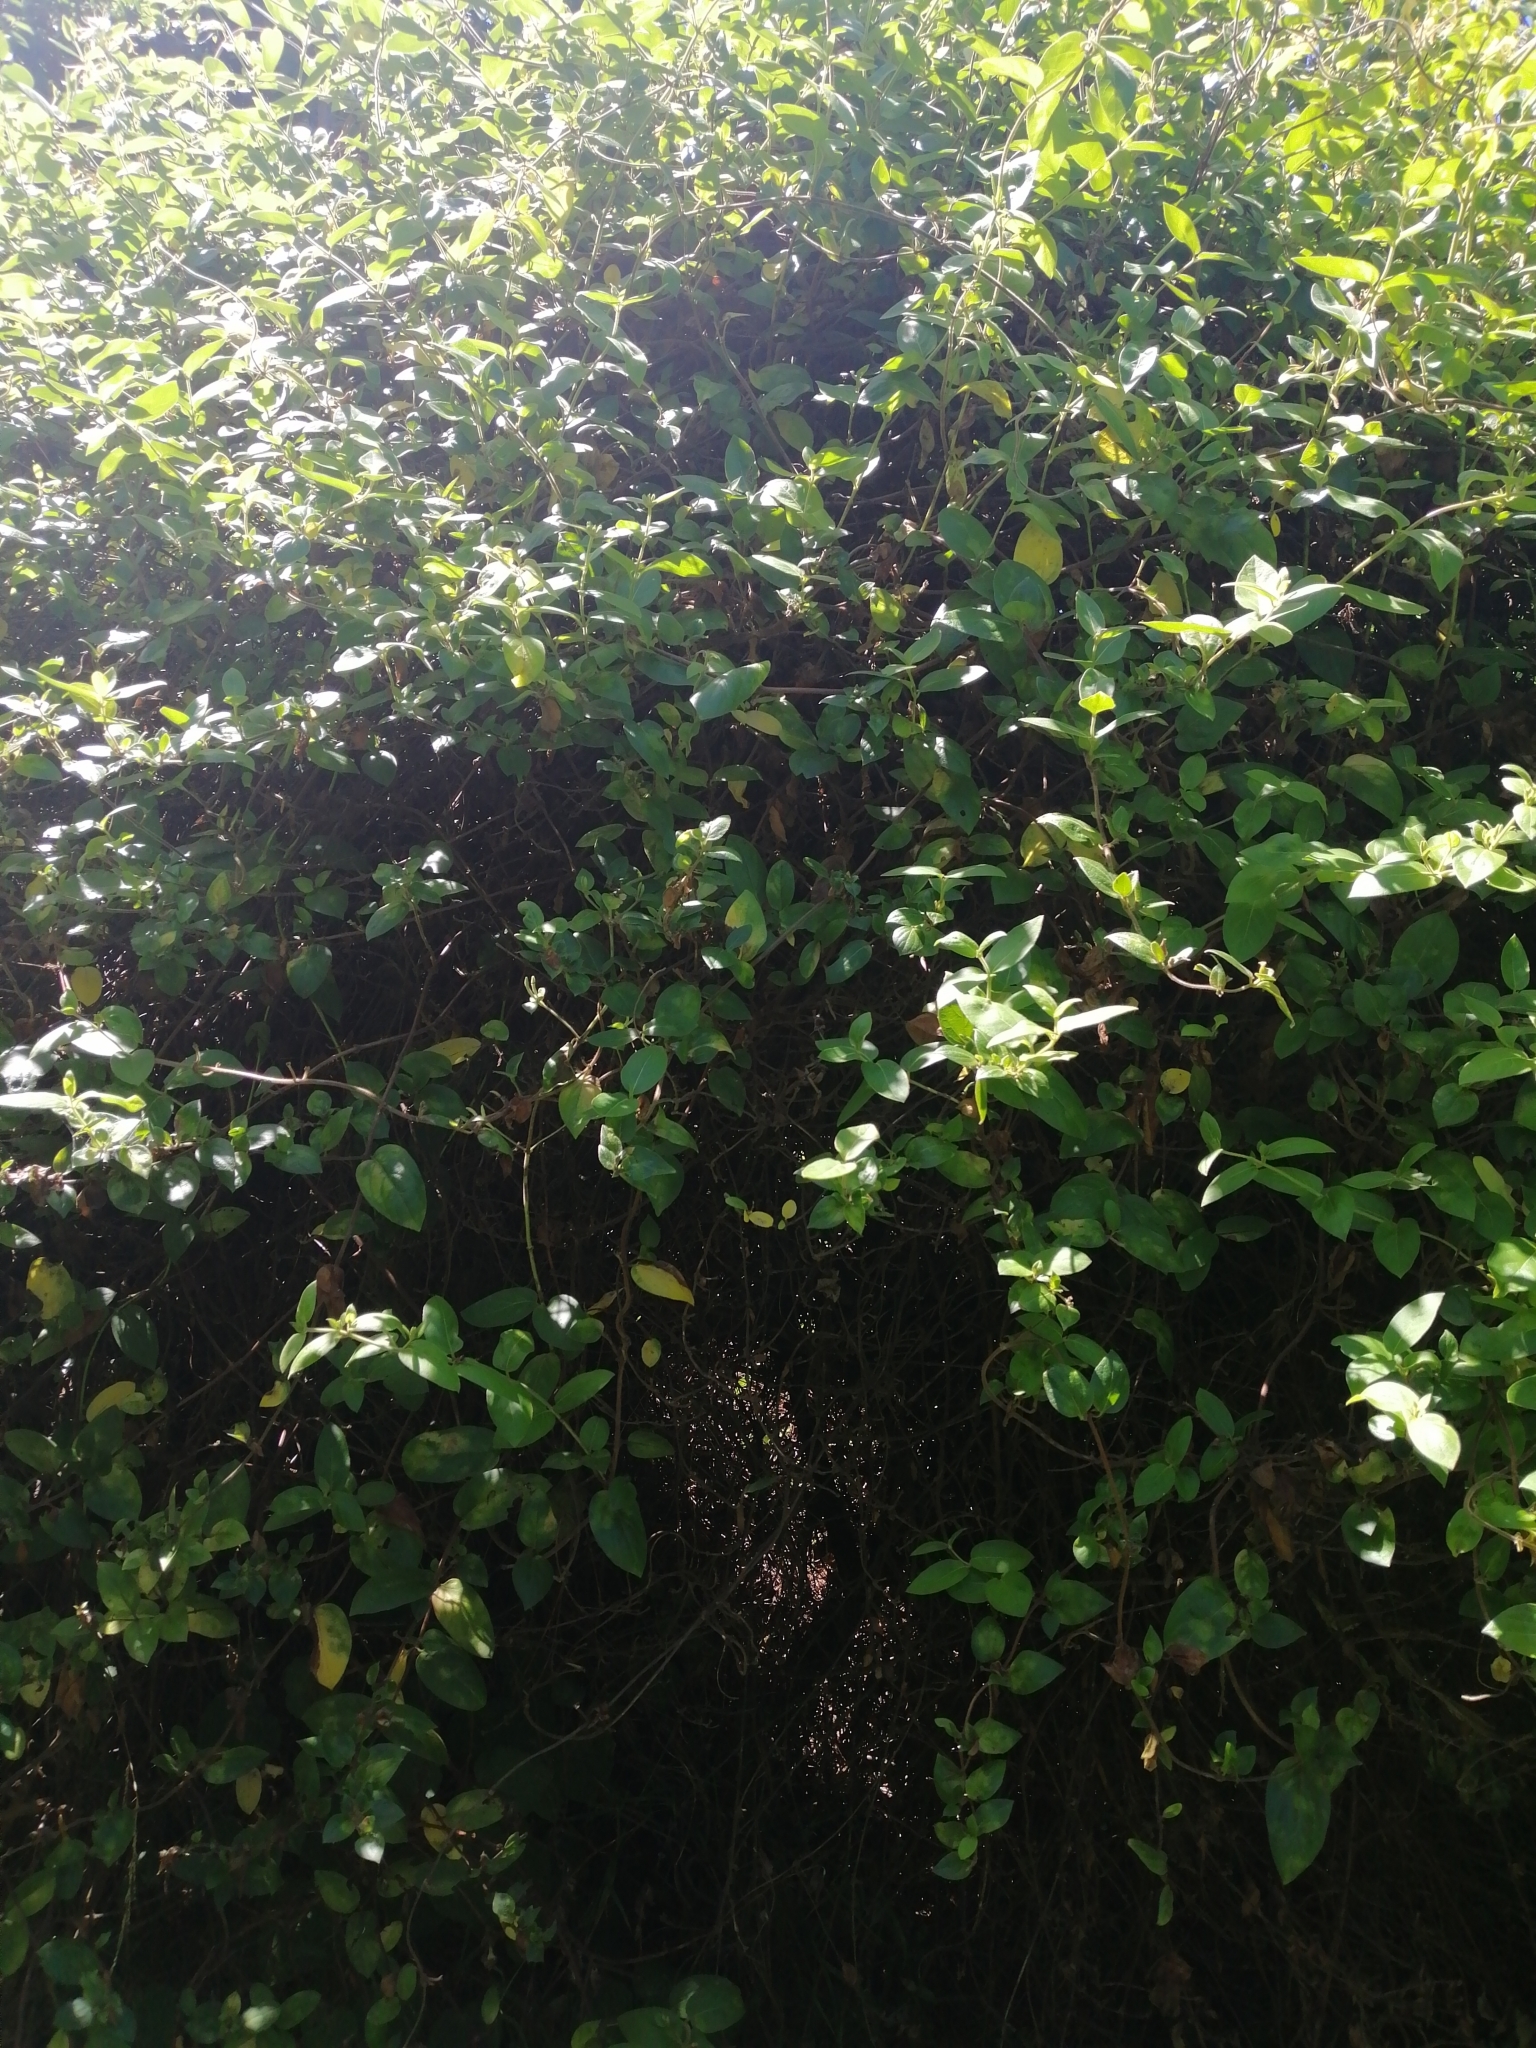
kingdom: Plantae
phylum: Tracheophyta
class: Magnoliopsida
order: Dipsacales
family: Caprifoliaceae
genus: Lonicera
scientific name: Lonicera japonica
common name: Japanese honeysuckle
